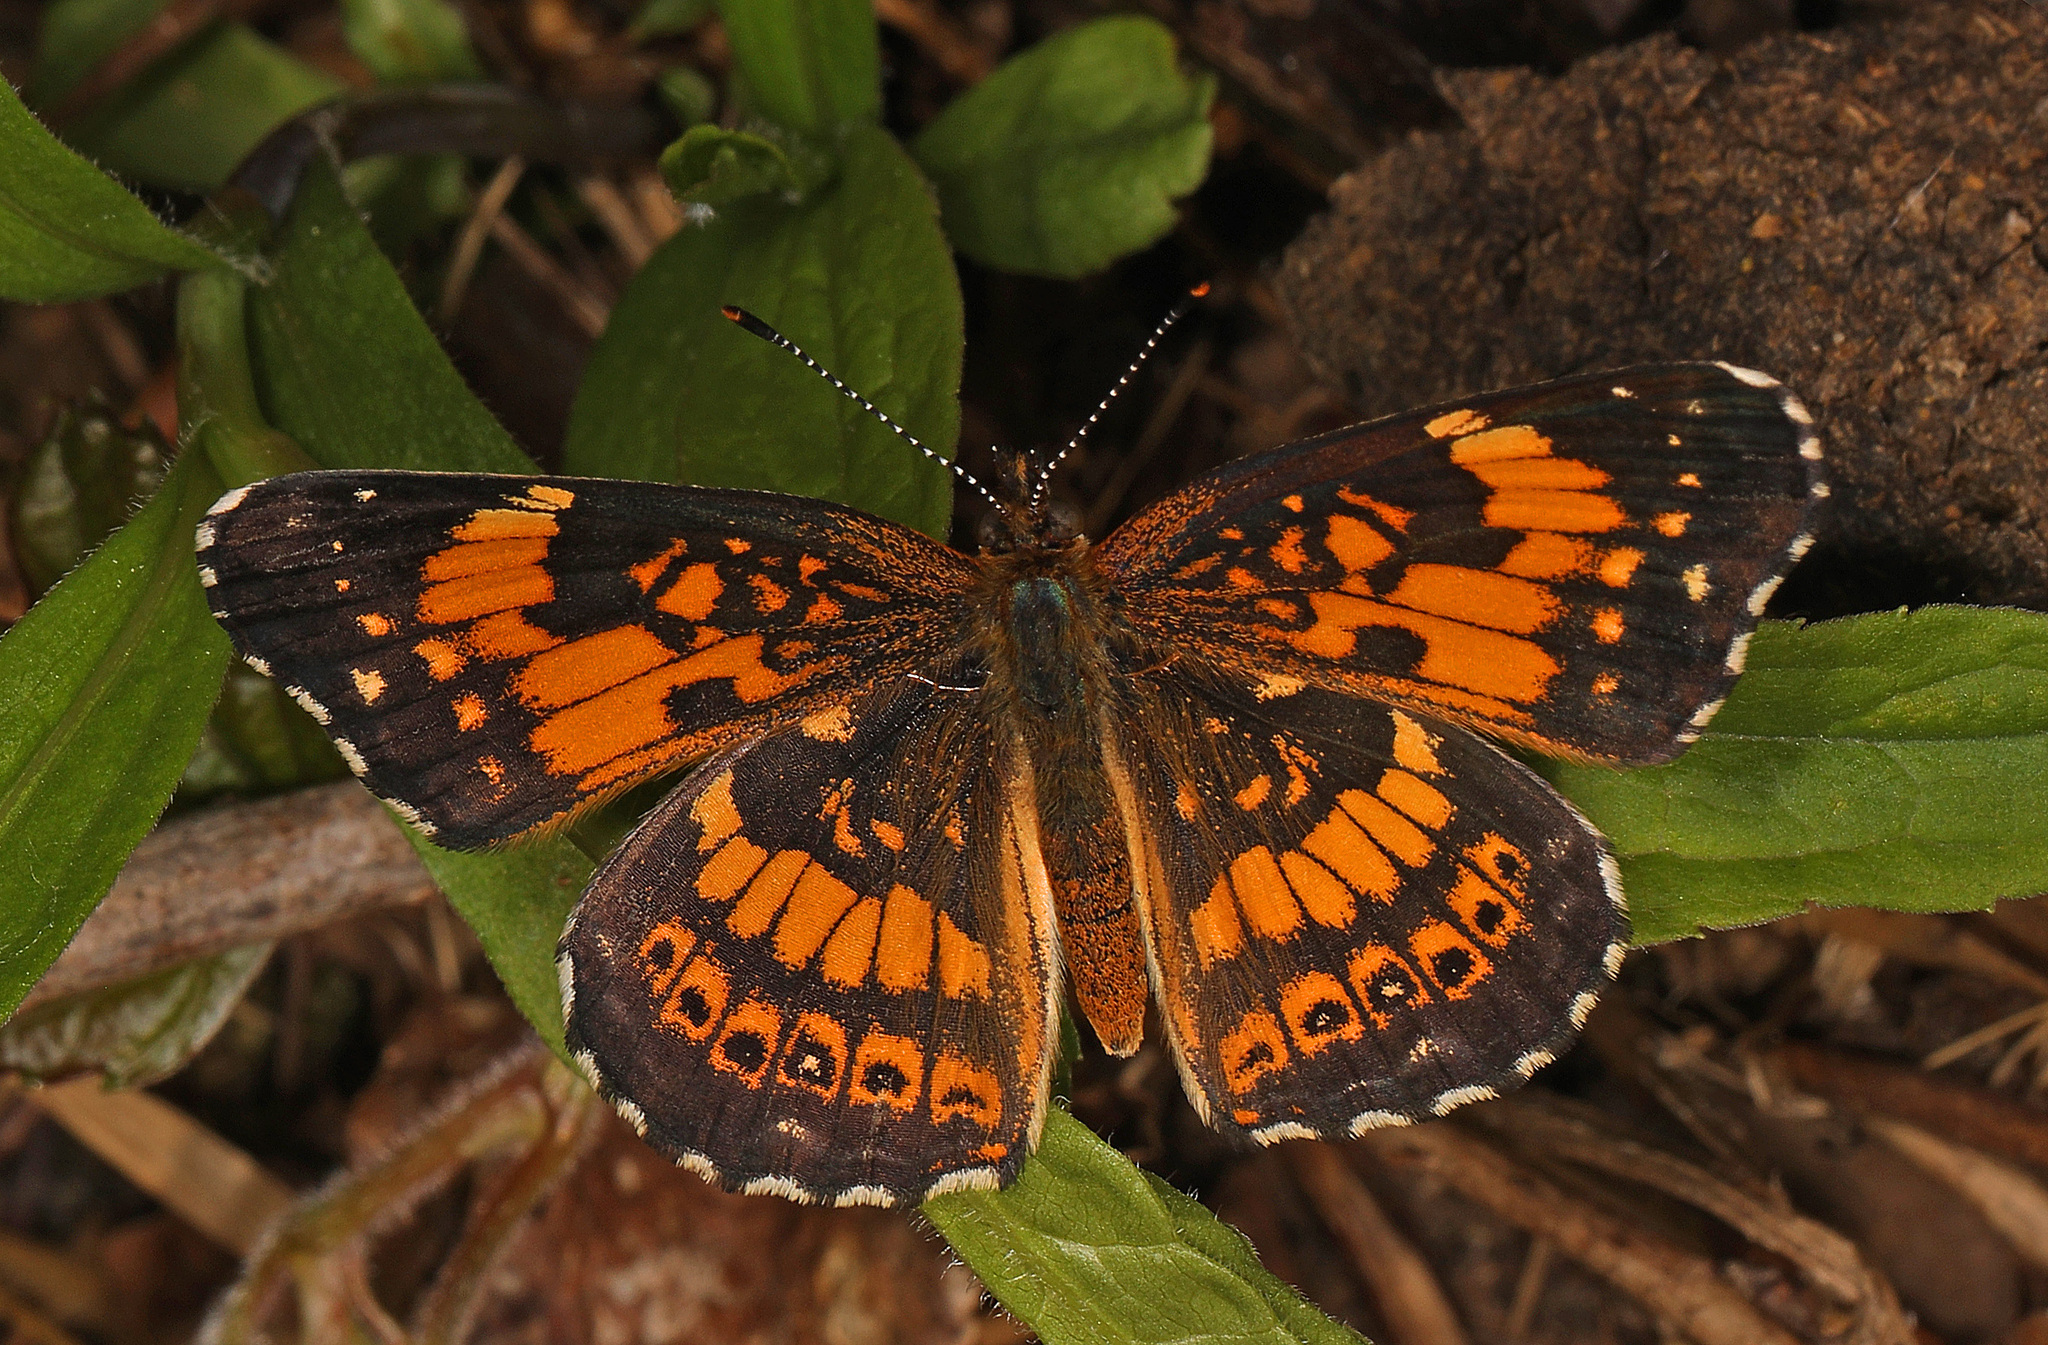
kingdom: Animalia
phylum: Arthropoda
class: Insecta
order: Lepidoptera
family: Nymphalidae
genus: Chlosyne
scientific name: Chlosyne nycteis
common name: Silvery checkerspot
